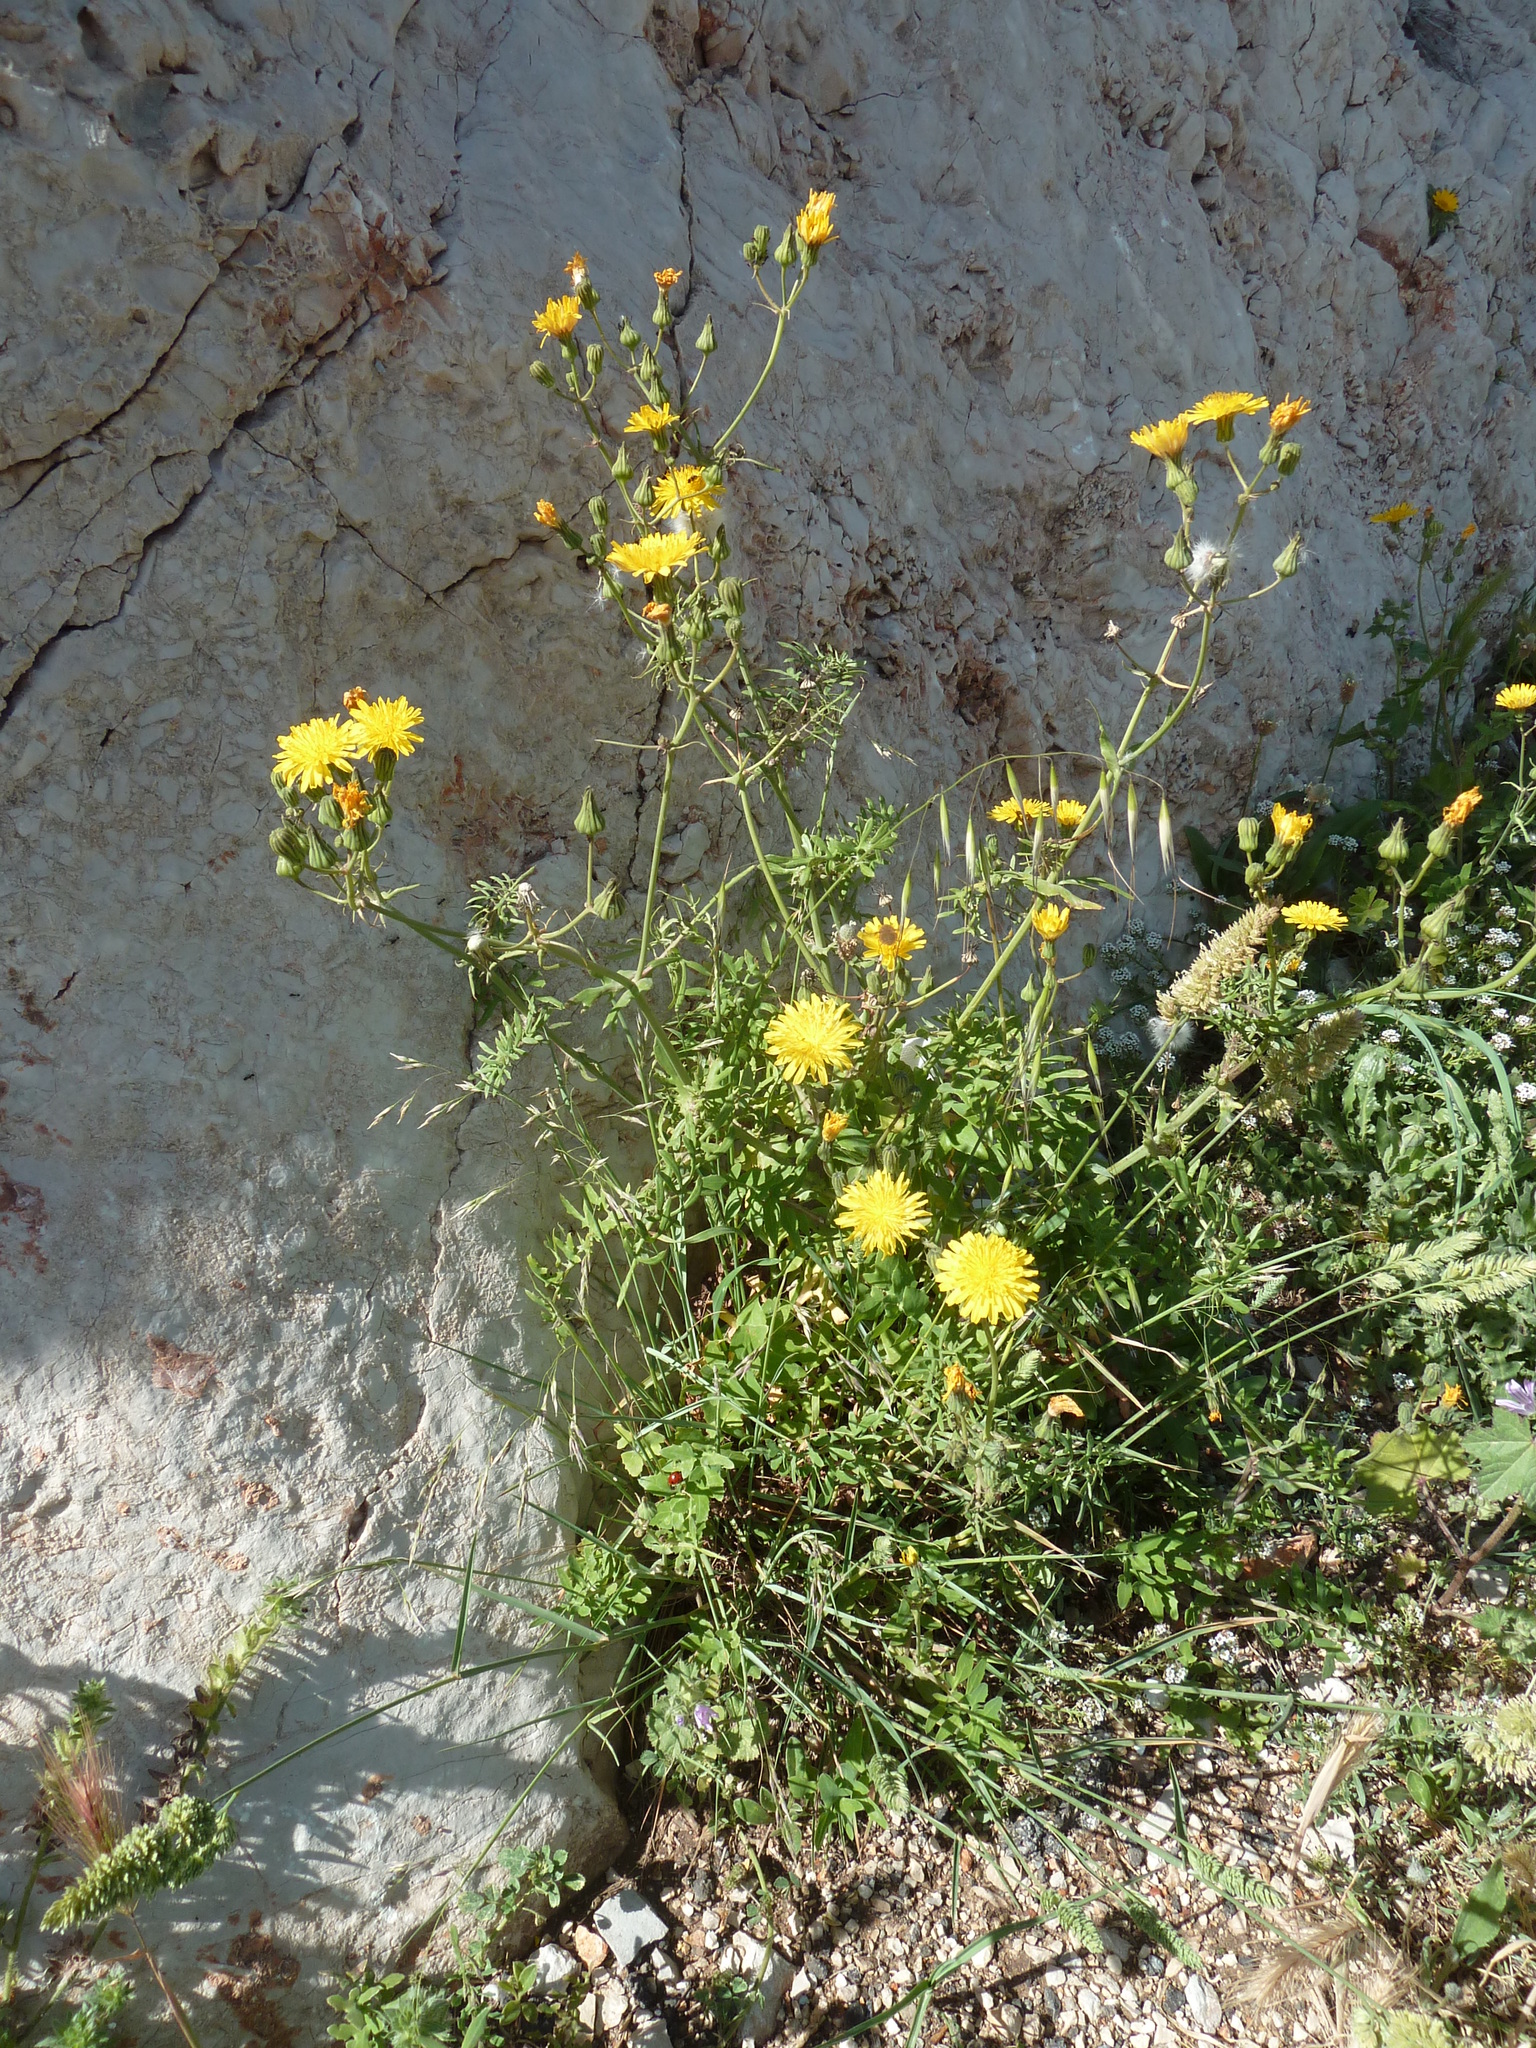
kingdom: Plantae
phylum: Tracheophyta
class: Magnoliopsida
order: Asterales
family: Asteraceae
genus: Sonchus
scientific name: Sonchus tenerrimus
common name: Clammy sowthistle
